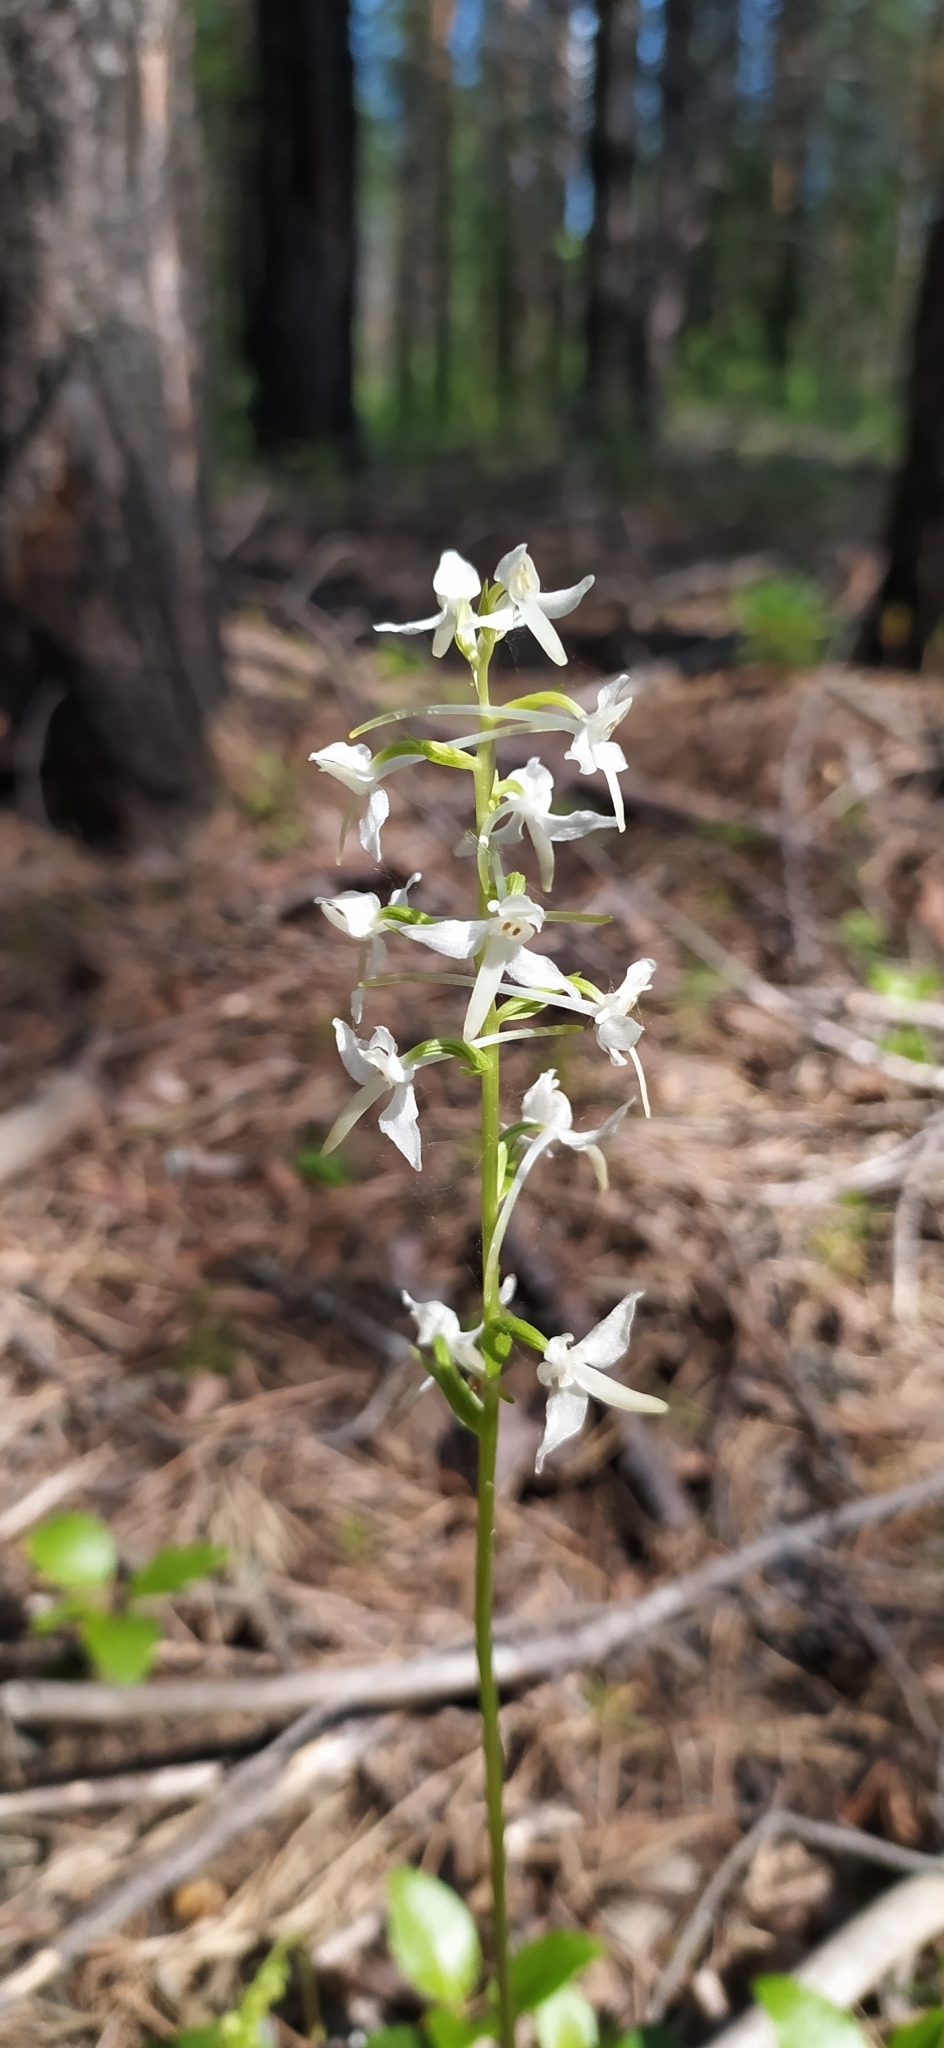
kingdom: Plantae
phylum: Tracheophyta
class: Liliopsida
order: Asparagales
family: Orchidaceae
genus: Platanthera
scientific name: Platanthera bifolia
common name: Lesser butterfly-orchid
